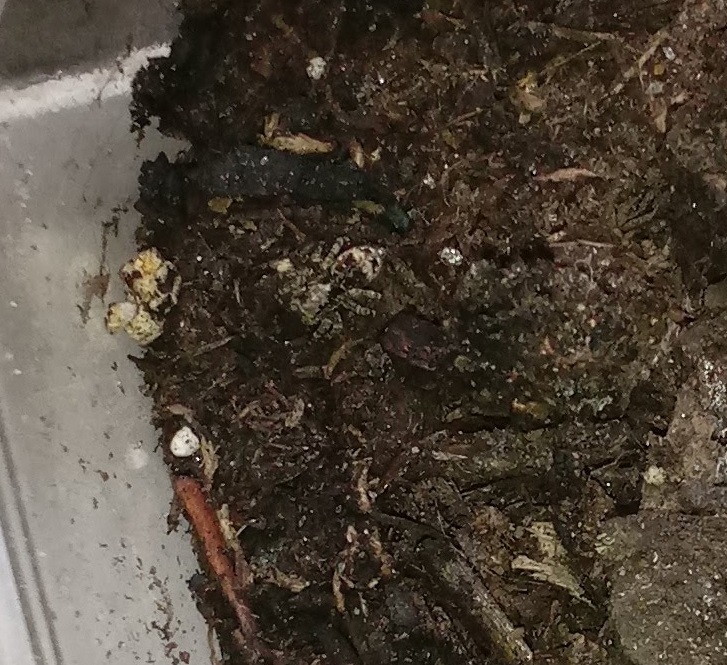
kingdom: Animalia
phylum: Arthropoda
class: Arachnida
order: Araneae
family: Salticidae
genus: Attulus
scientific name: Attulus fasciger
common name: Asiatic wall jumping spider
